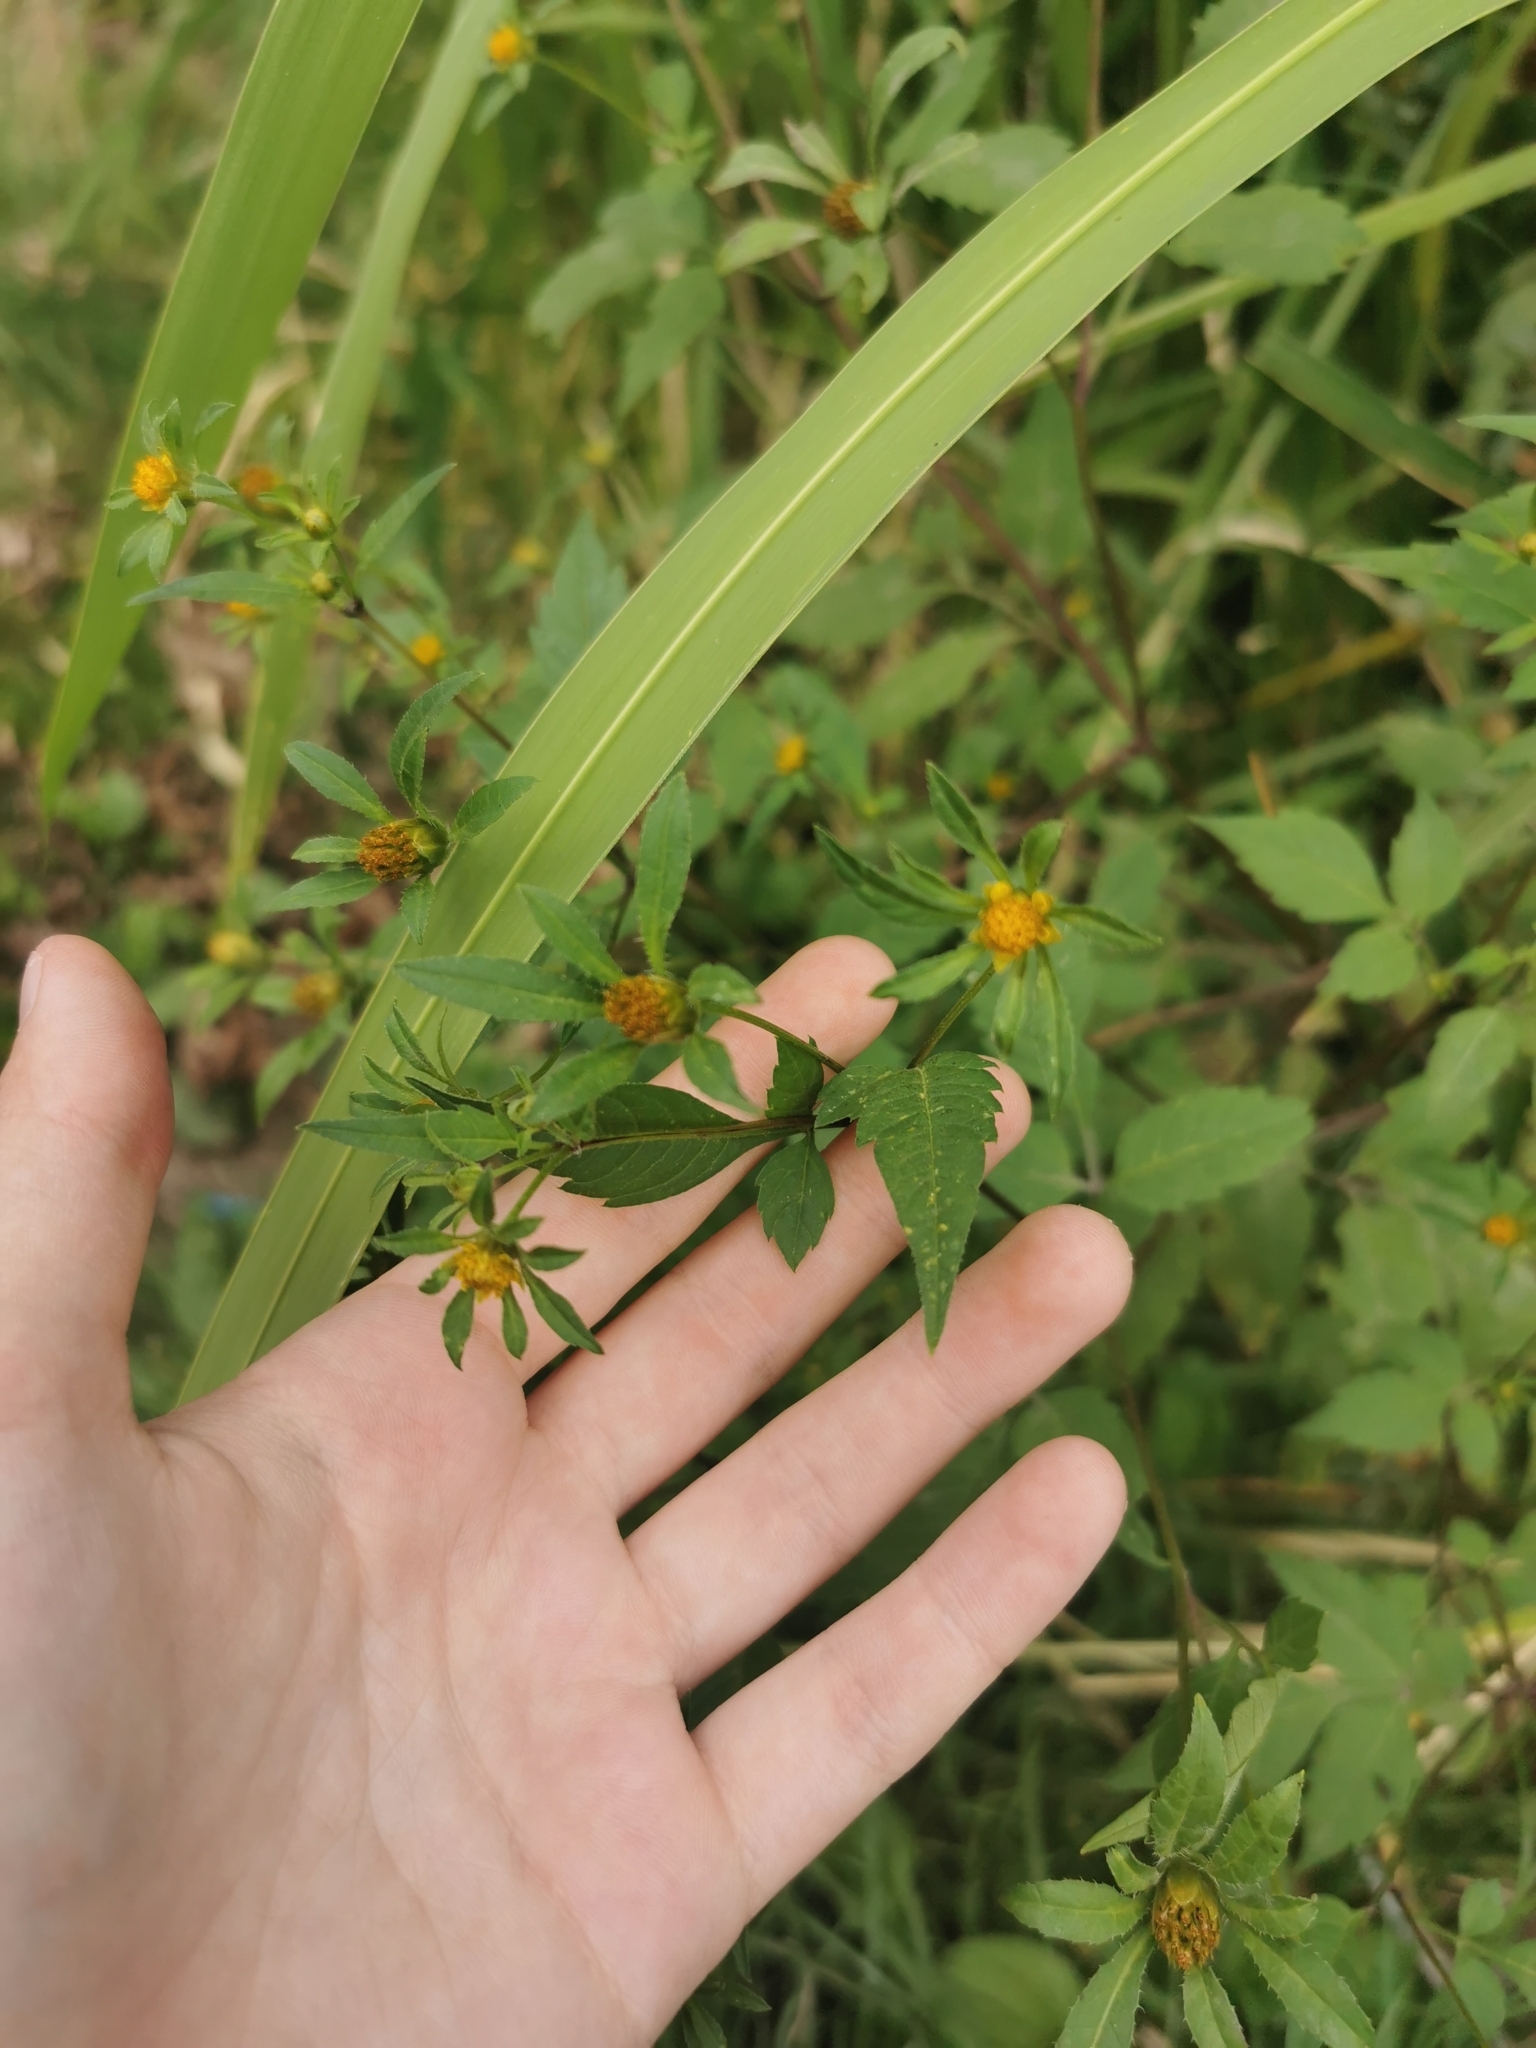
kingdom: Plantae
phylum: Tracheophyta
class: Magnoliopsida
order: Asterales
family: Asteraceae
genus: Bidens
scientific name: Bidens frondosa
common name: Beggarticks
